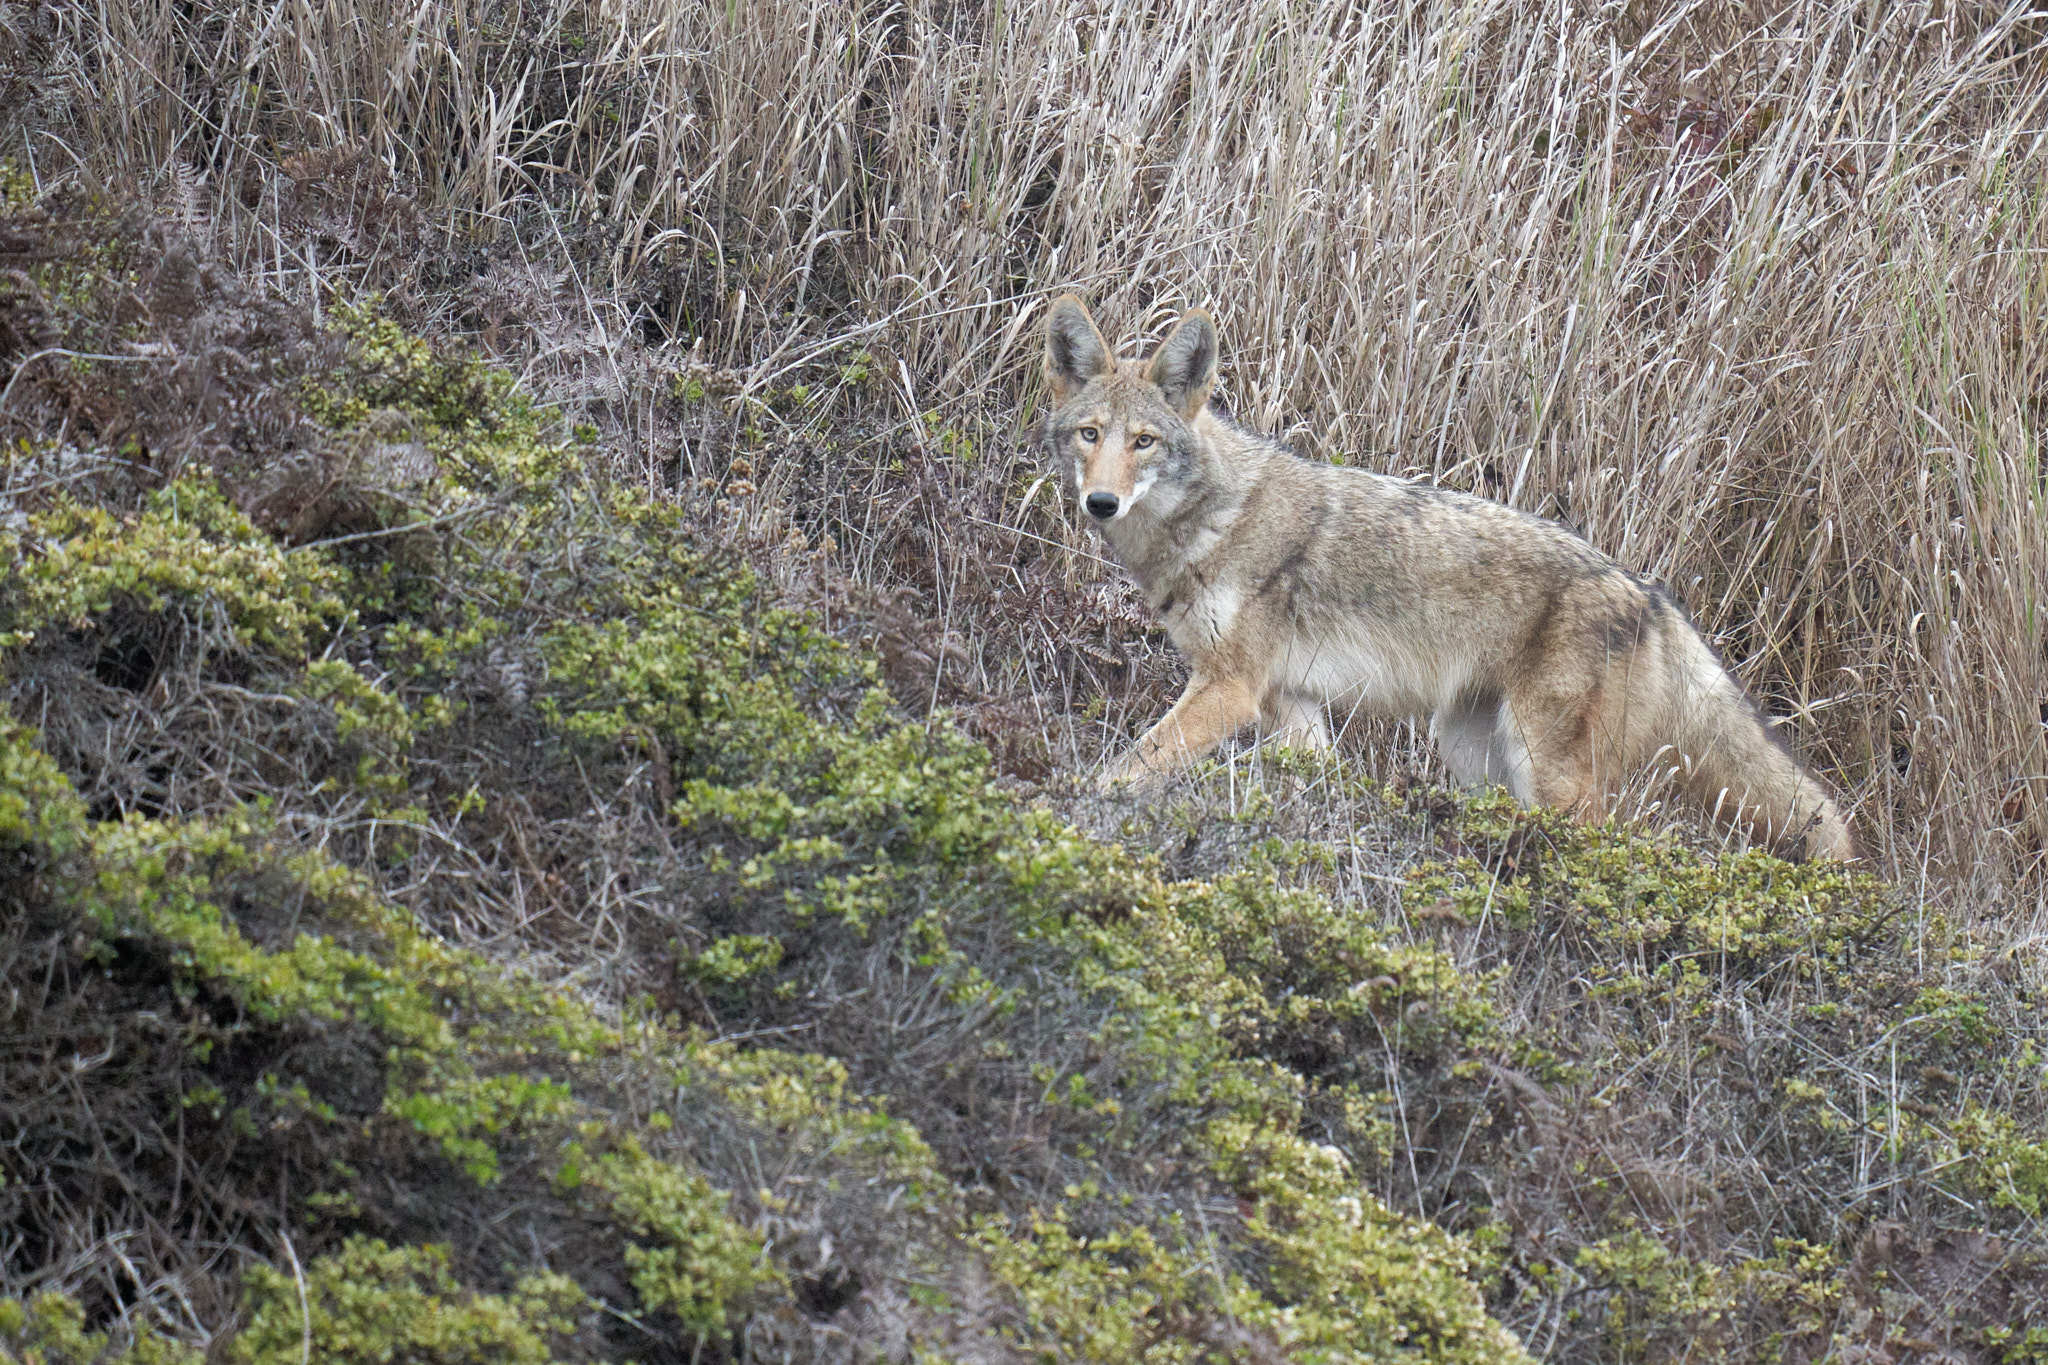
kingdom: Animalia
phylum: Chordata
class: Mammalia
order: Carnivora
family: Canidae
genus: Canis
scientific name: Canis latrans
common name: Coyote
